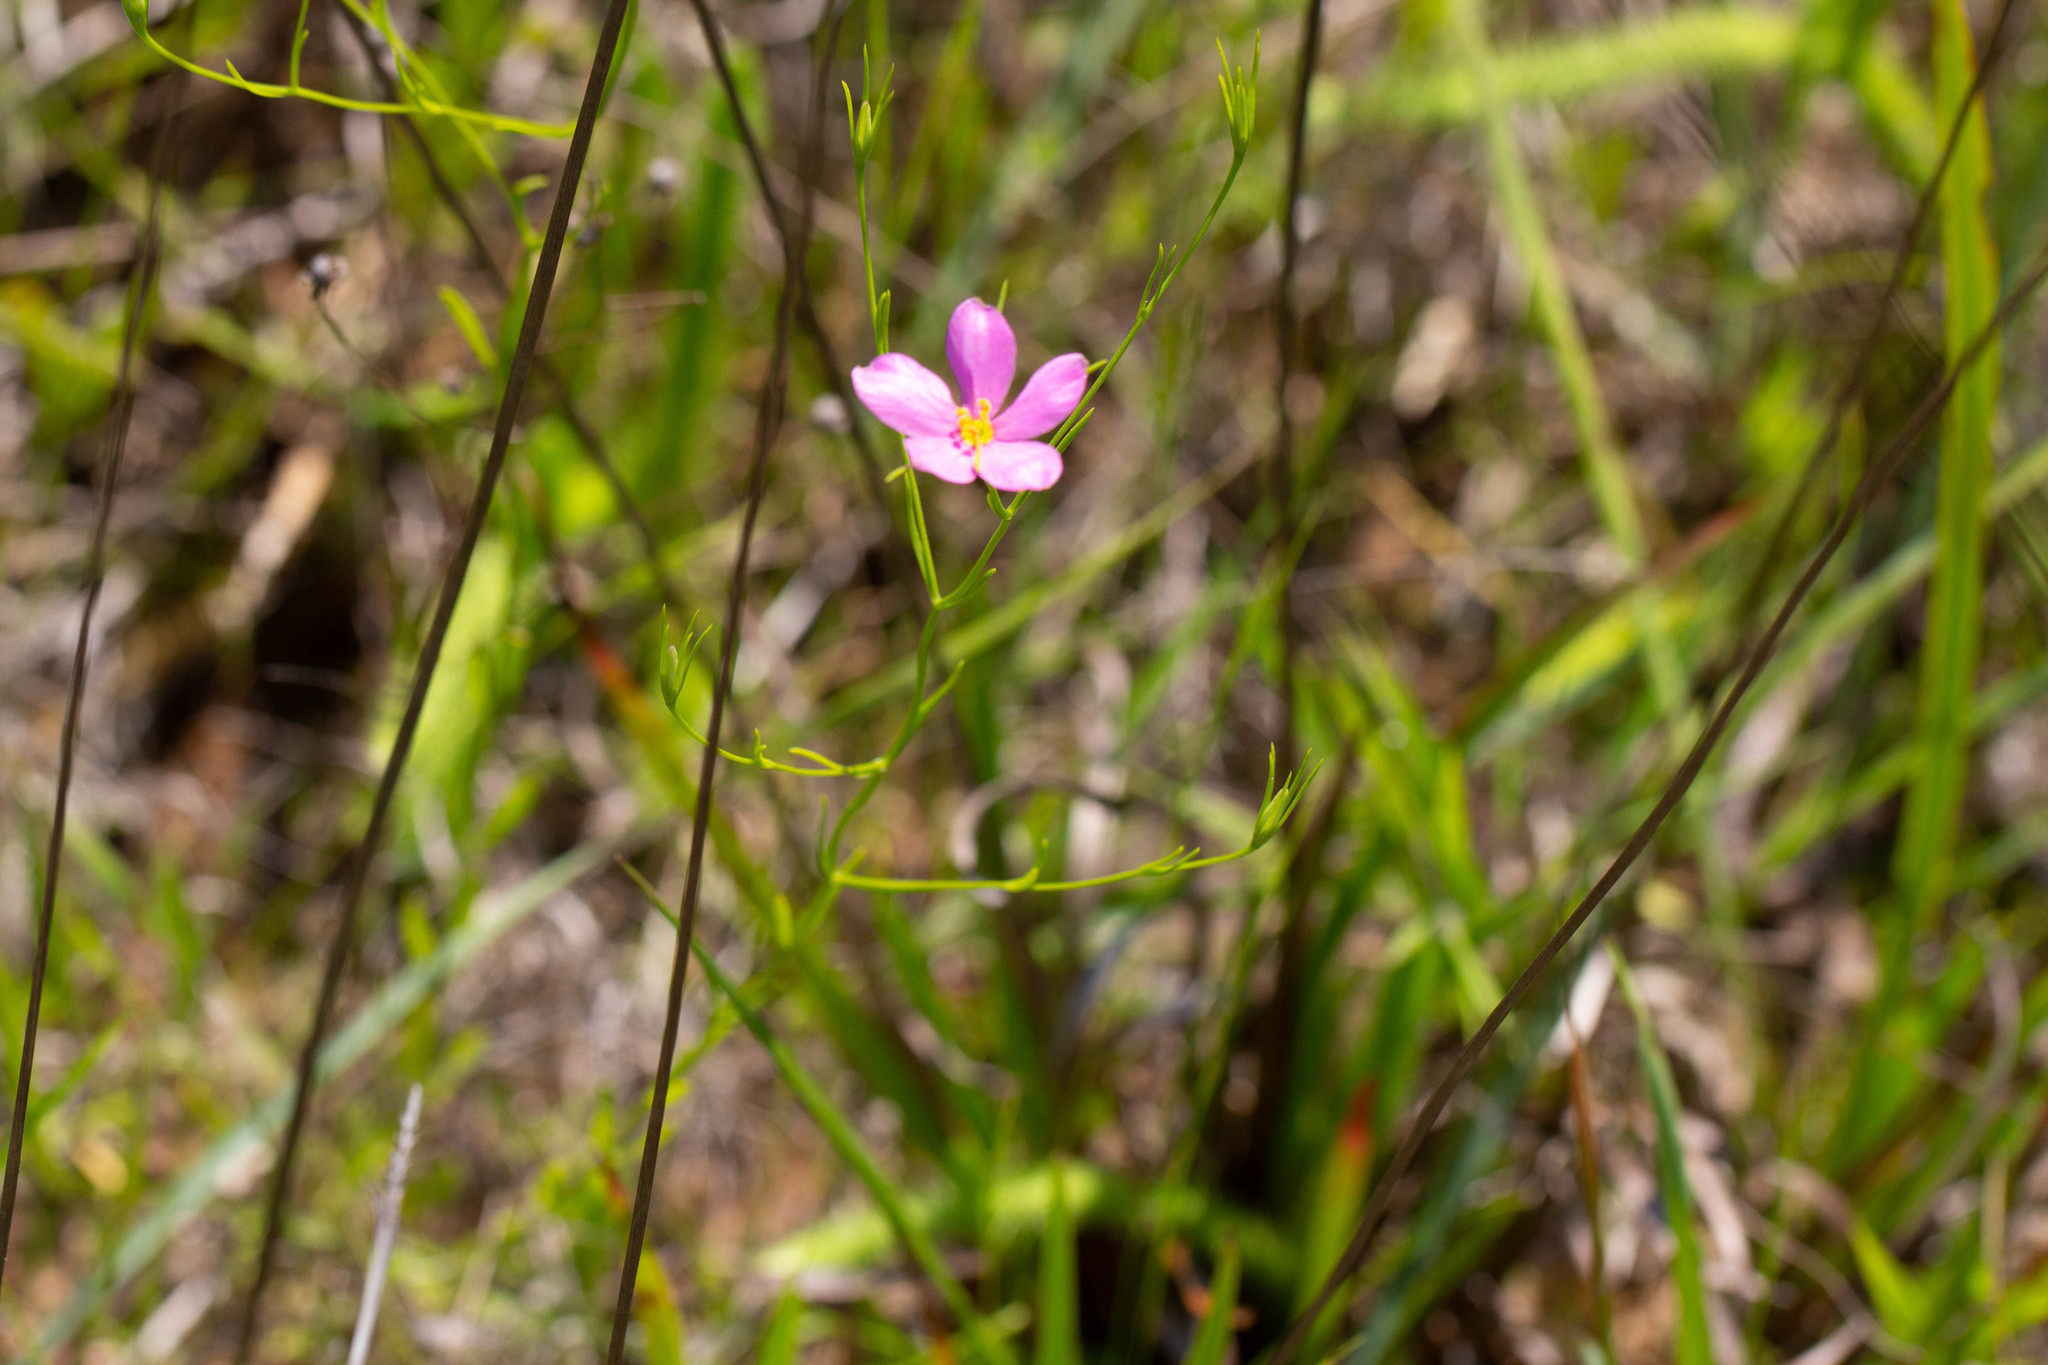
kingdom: Plantae
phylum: Tracheophyta
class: Magnoliopsida
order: Gentianales
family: Gentianaceae
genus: Sabatia
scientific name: Sabatia campanulata
